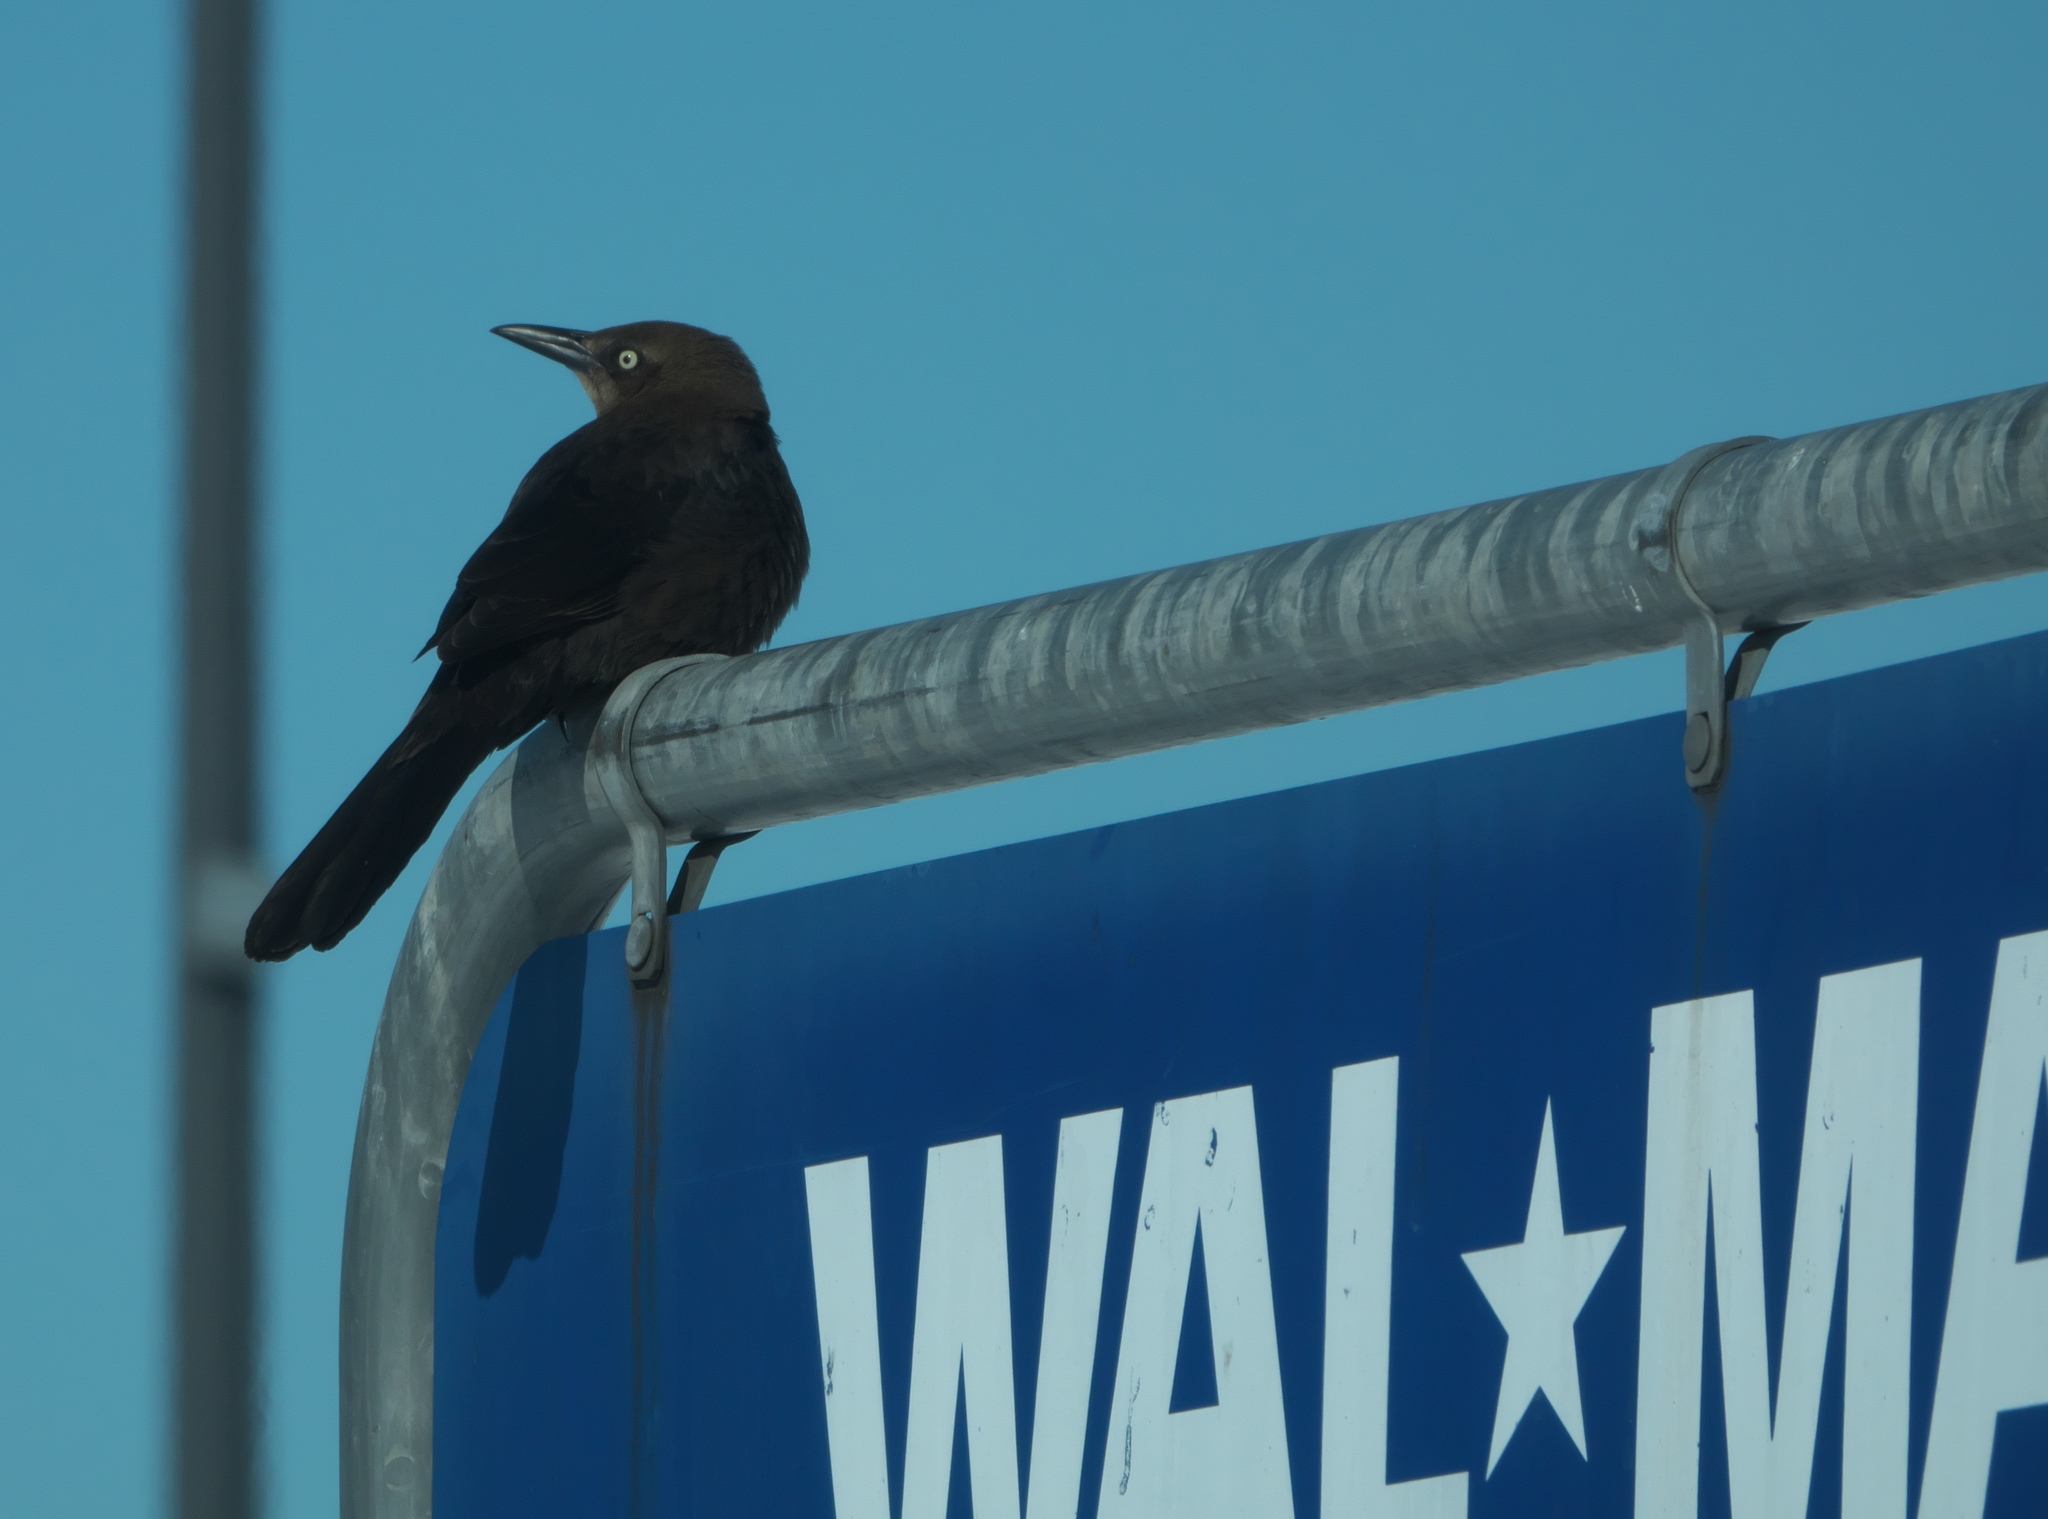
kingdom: Animalia
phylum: Chordata
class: Aves
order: Passeriformes
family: Icteridae
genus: Quiscalus
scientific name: Quiscalus mexicanus
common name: Great-tailed grackle
